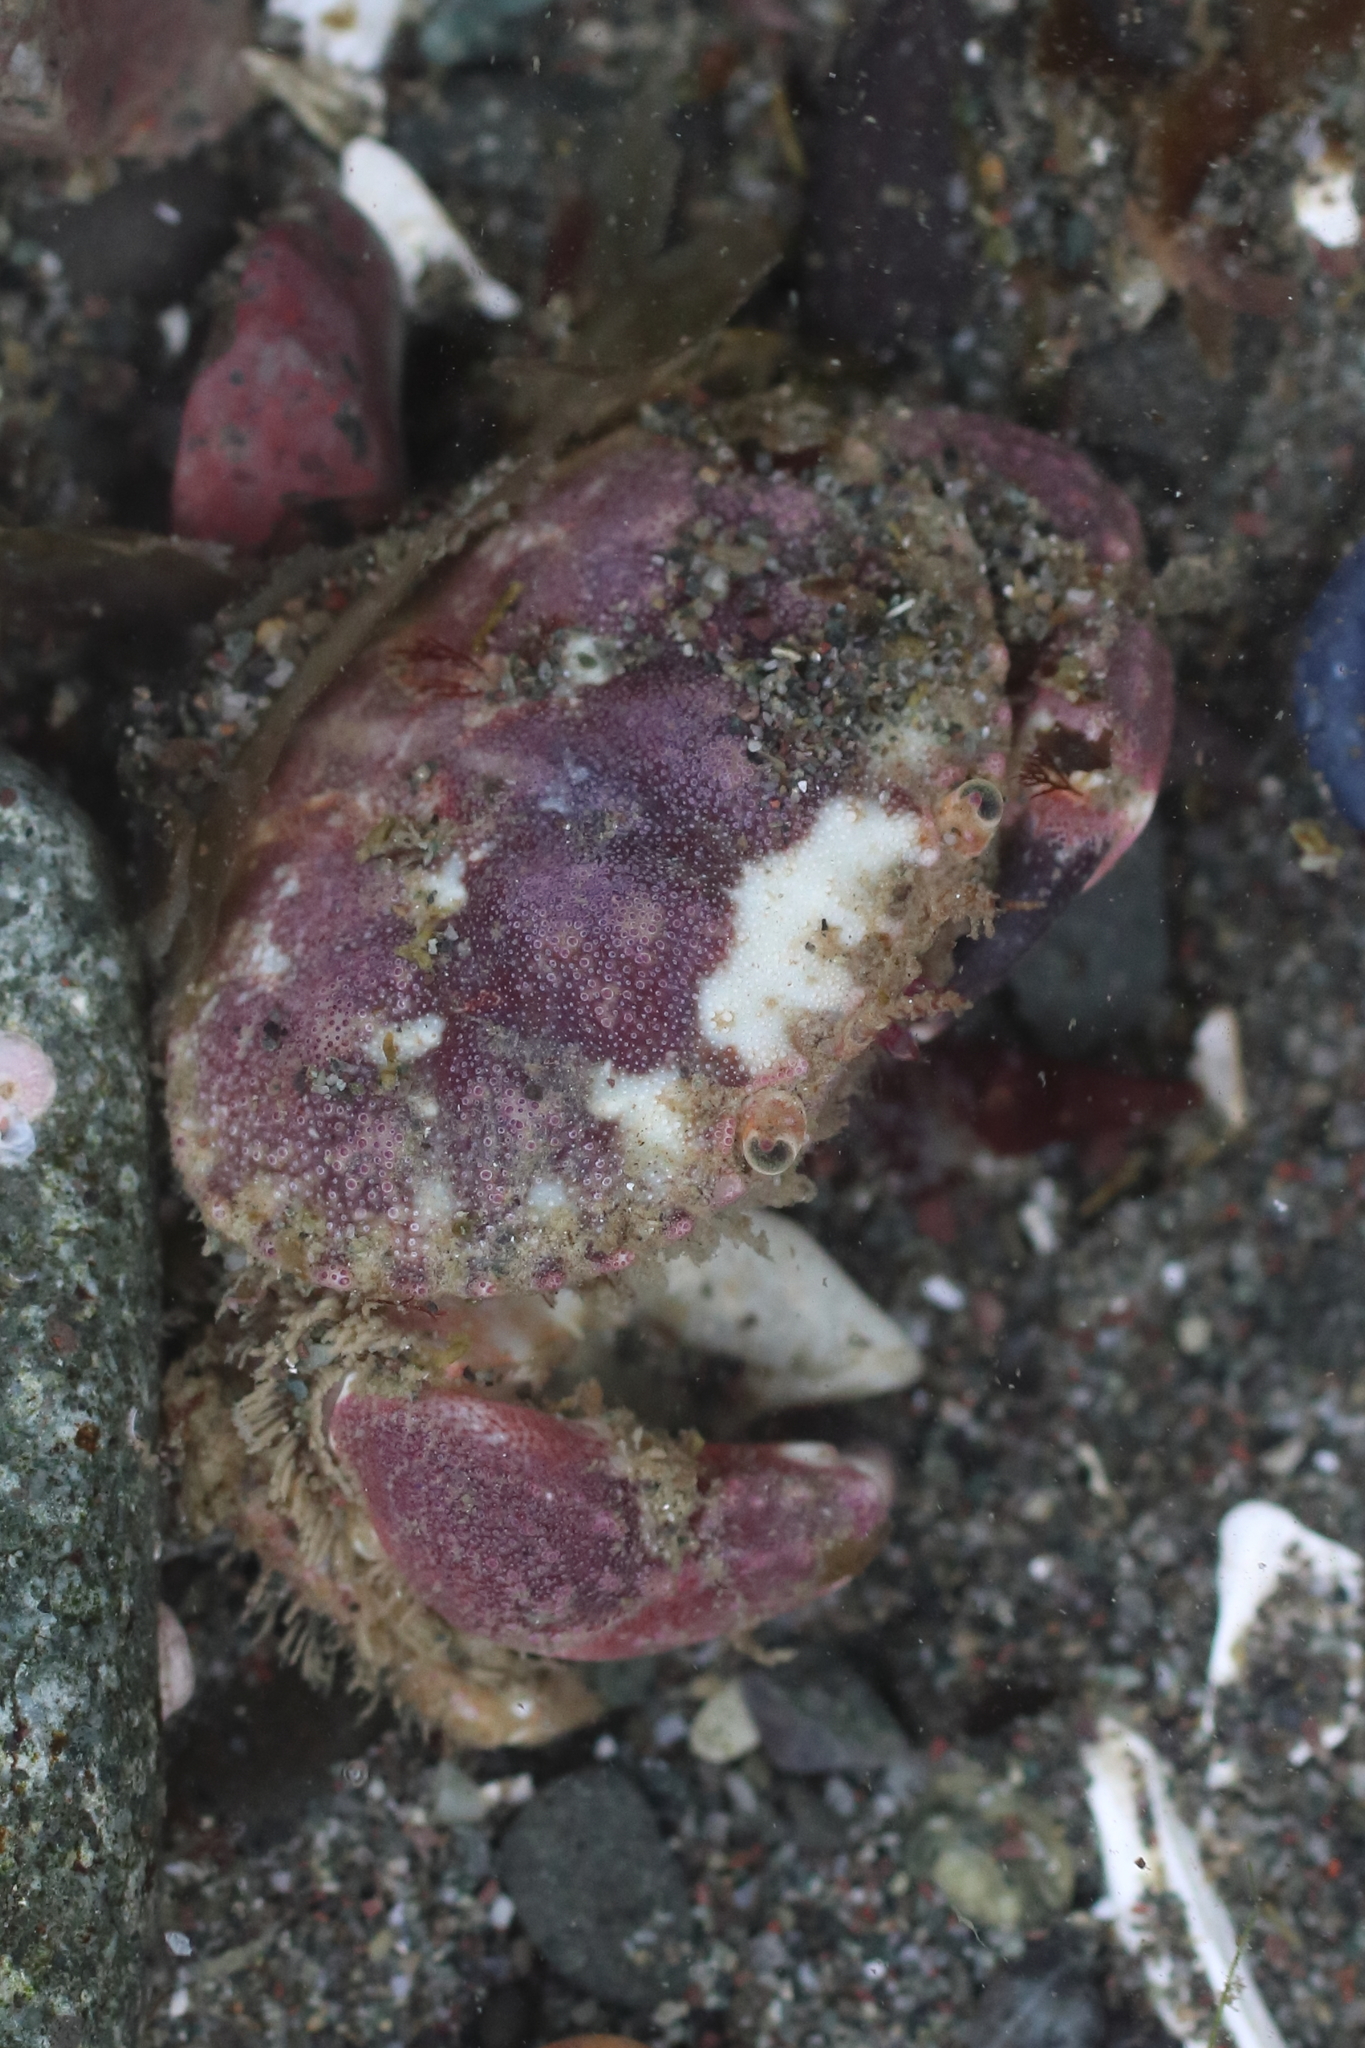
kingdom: Animalia
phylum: Arthropoda
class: Malacostraca
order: Decapoda
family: Cancridae
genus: Glebocarcinus
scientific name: Glebocarcinus oregonensis
